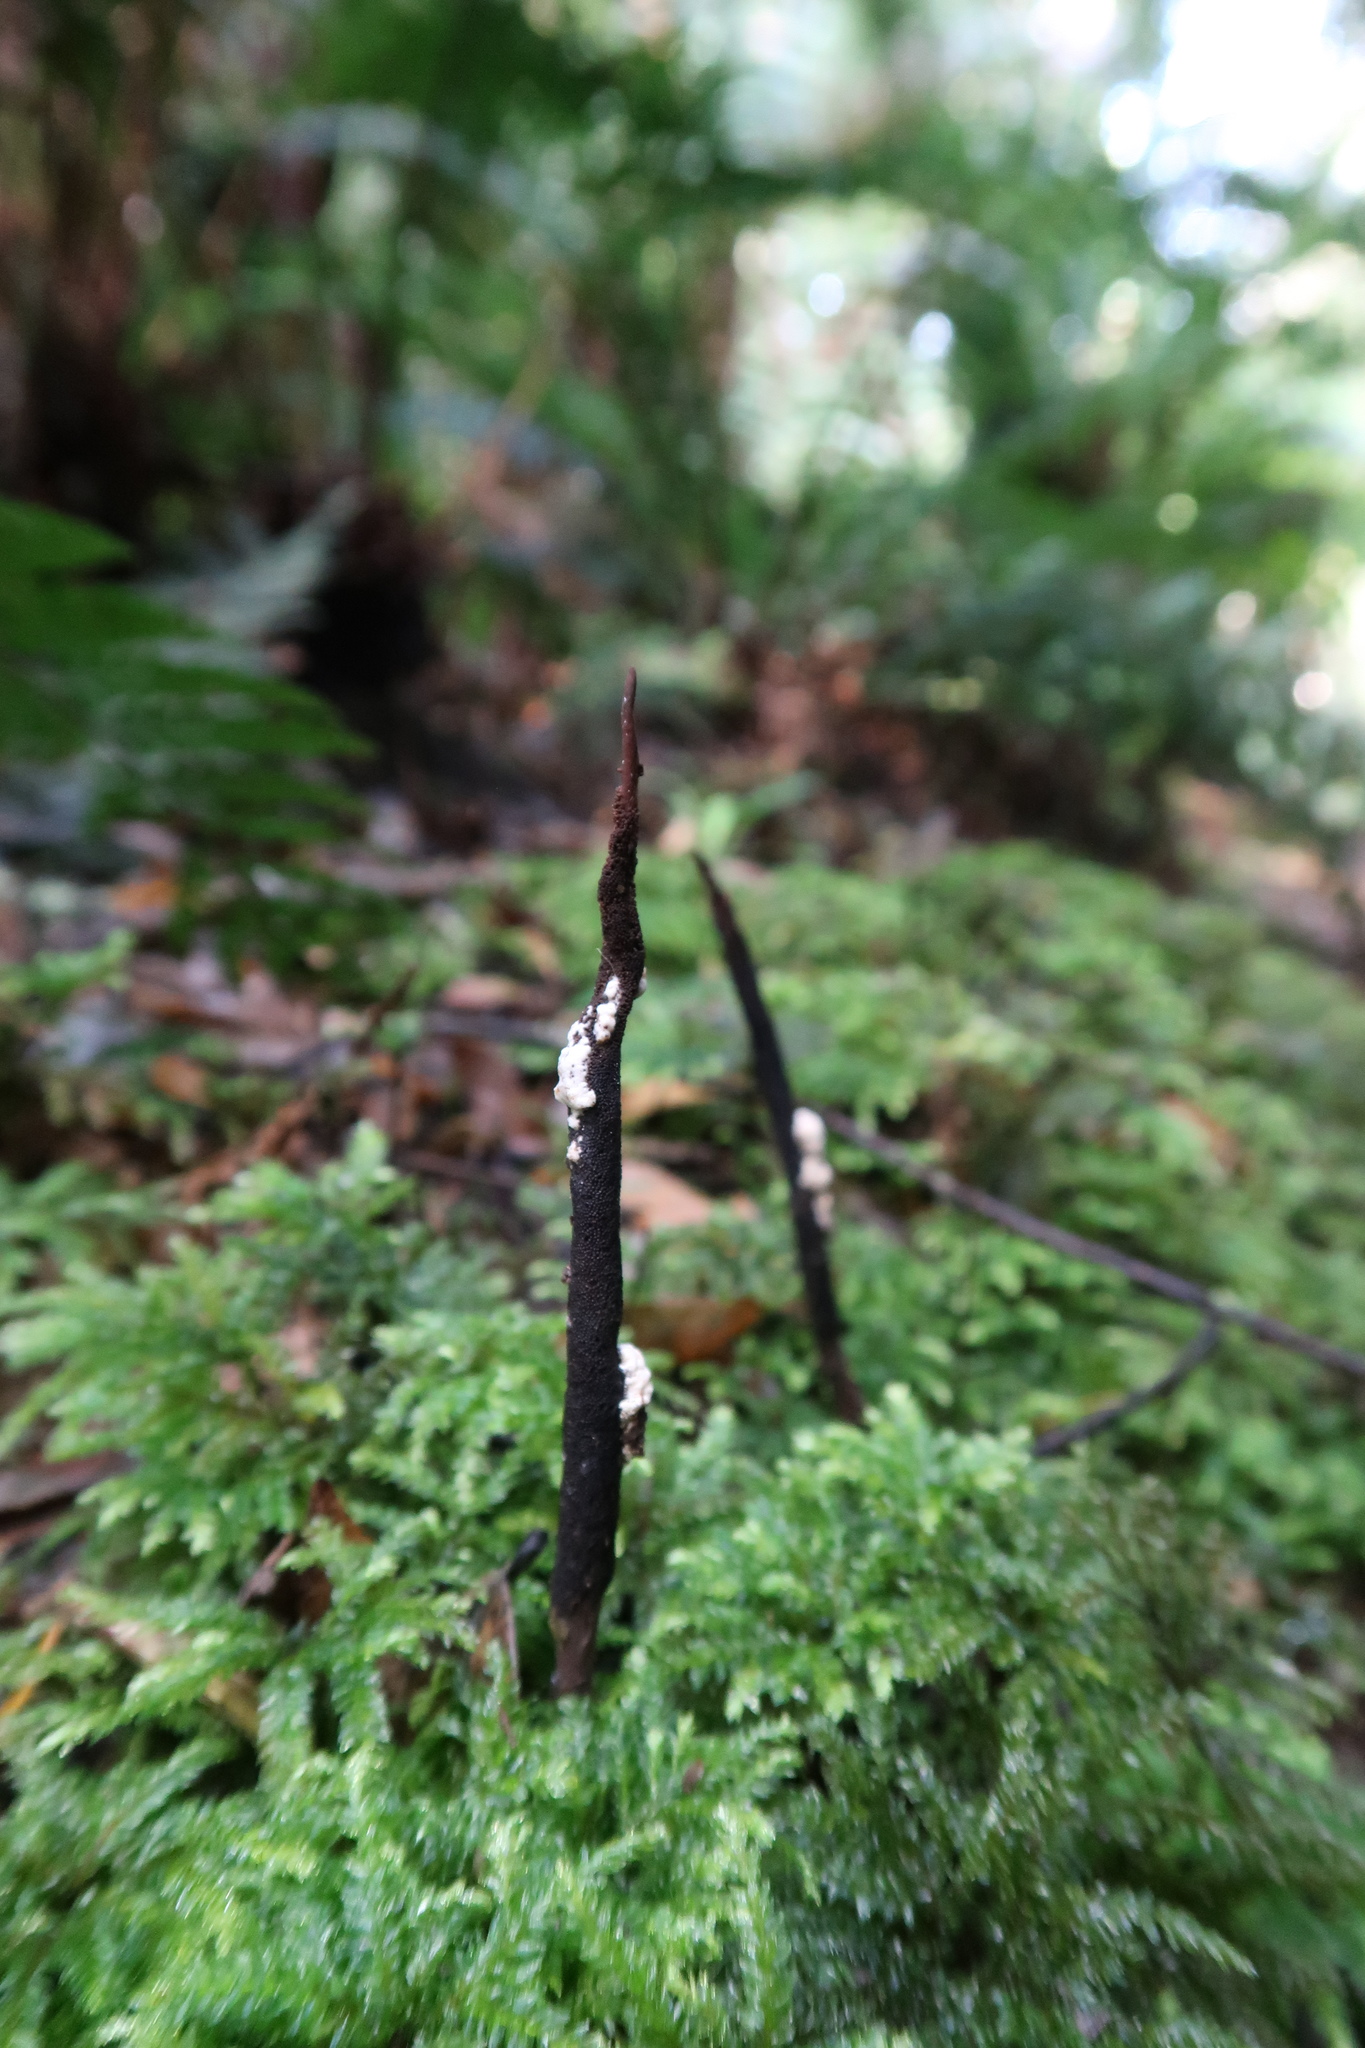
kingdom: Fungi
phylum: Ascomycota
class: Sordariomycetes
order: Hypocreales
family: Ophiocordycipitaceae
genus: Ophiocordyceps
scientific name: Ophiocordyceps robertsii
